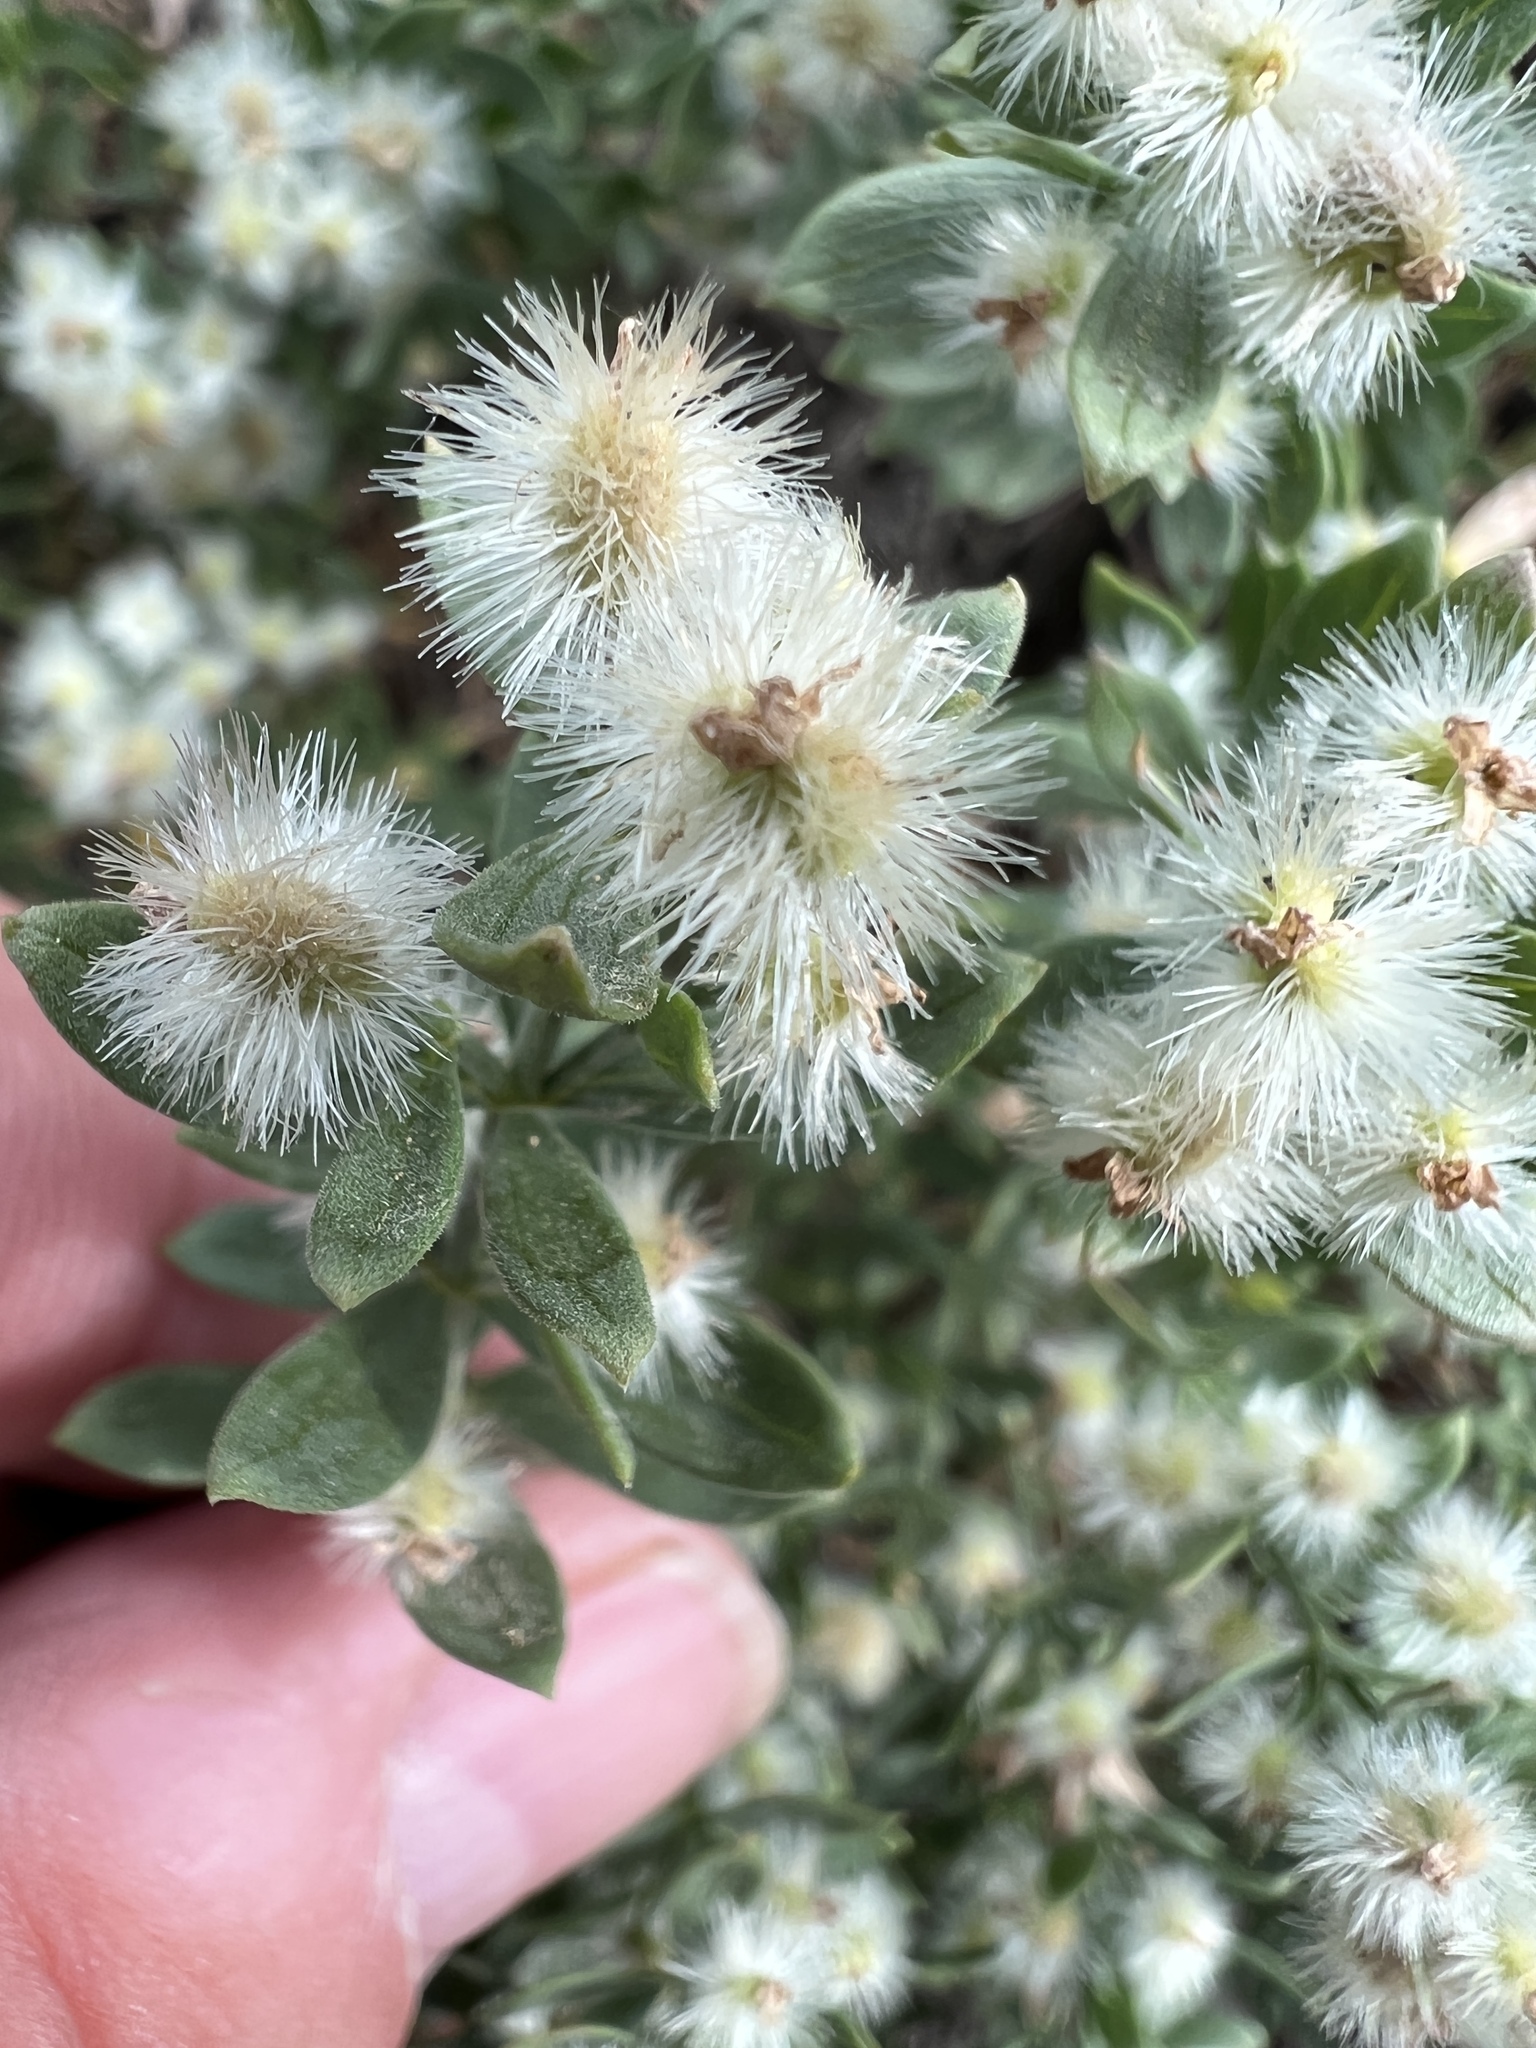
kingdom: Plantae
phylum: Tracheophyta
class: Magnoliopsida
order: Gentianales
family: Rubiaceae
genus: Galium
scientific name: Galium serpenticum
